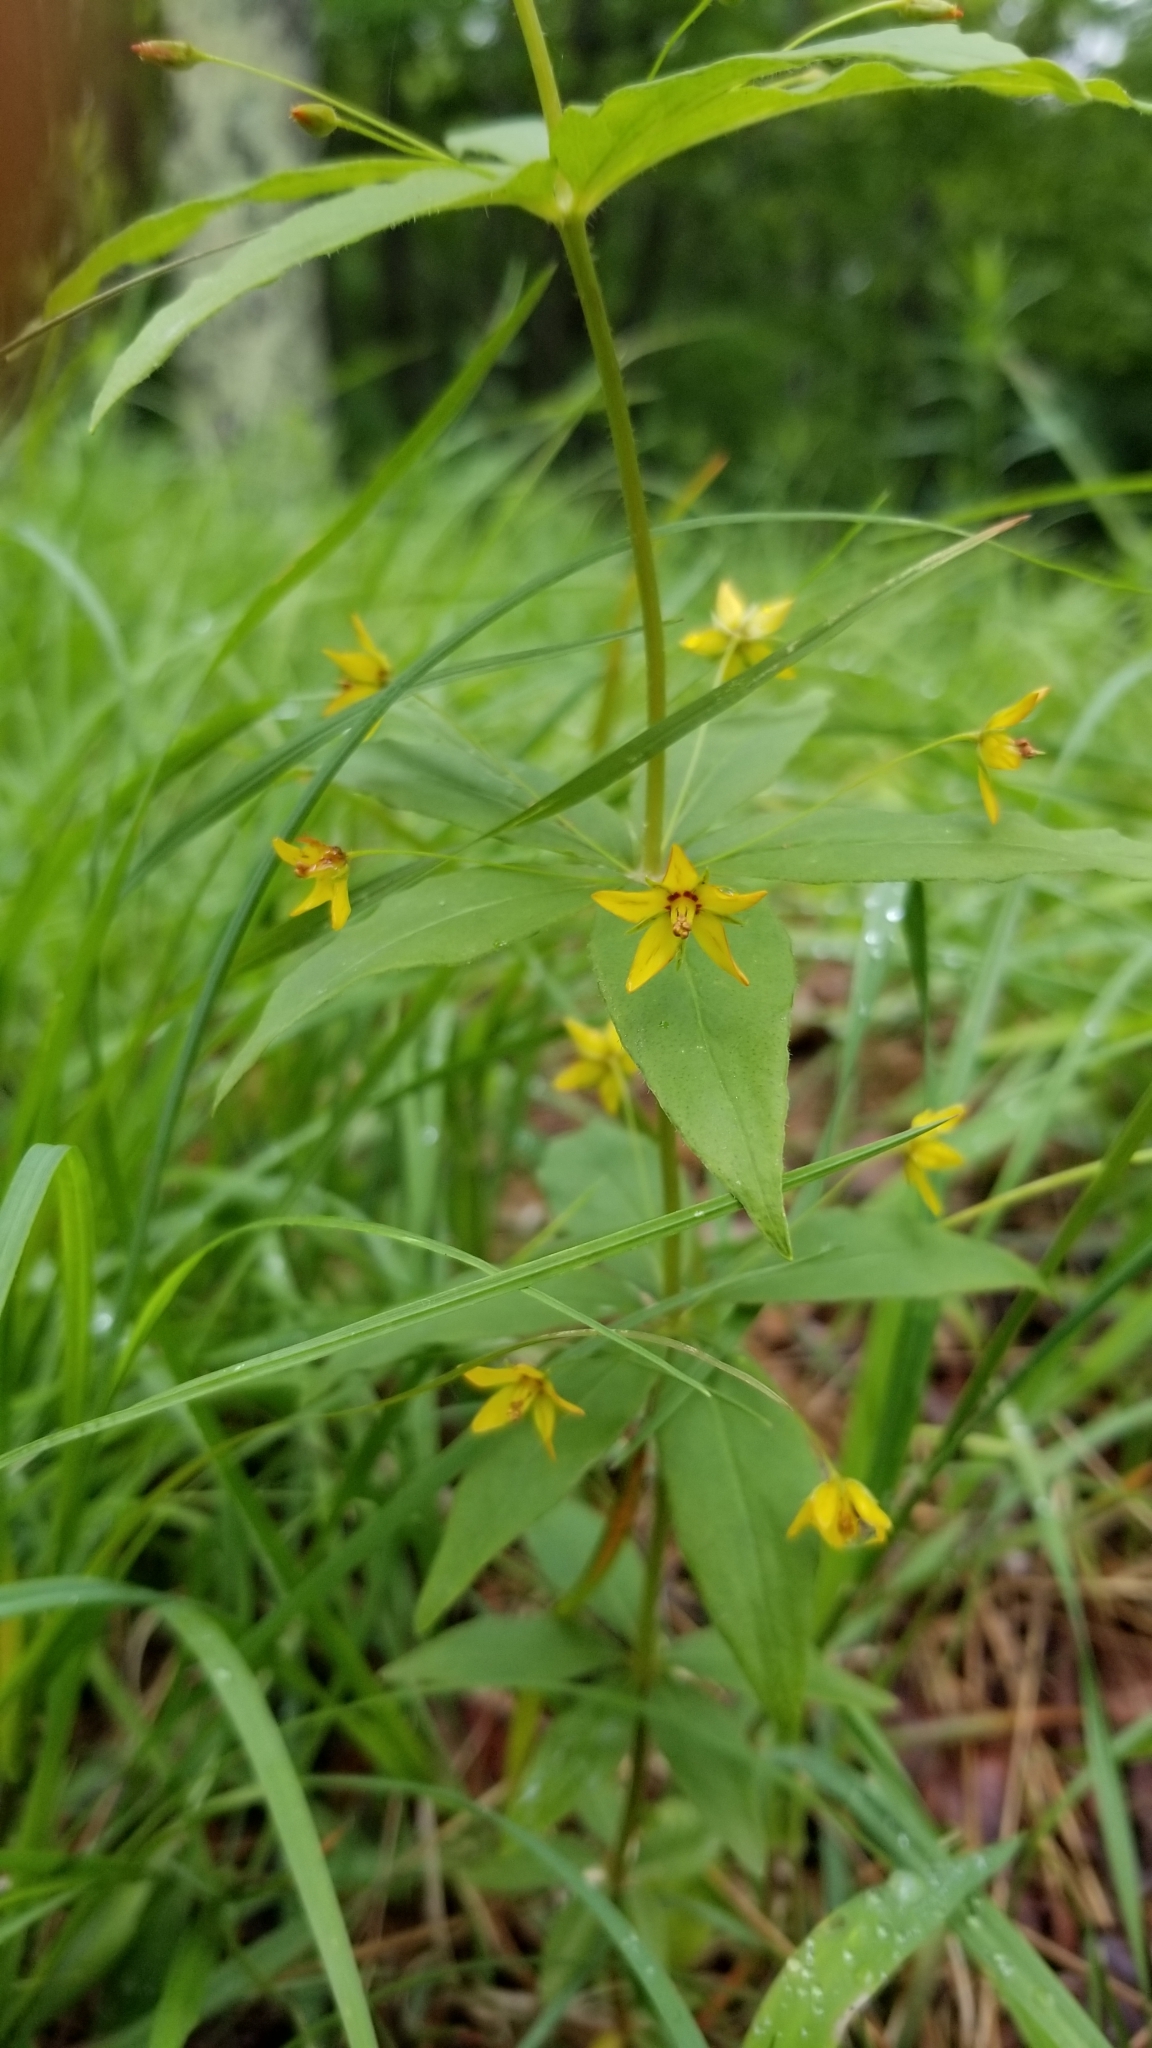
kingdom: Plantae
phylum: Tracheophyta
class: Magnoliopsida
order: Ericales
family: Primulaceae
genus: Lysimachia
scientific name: Lysimachia quadrifolia
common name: Whorled loosestrife
